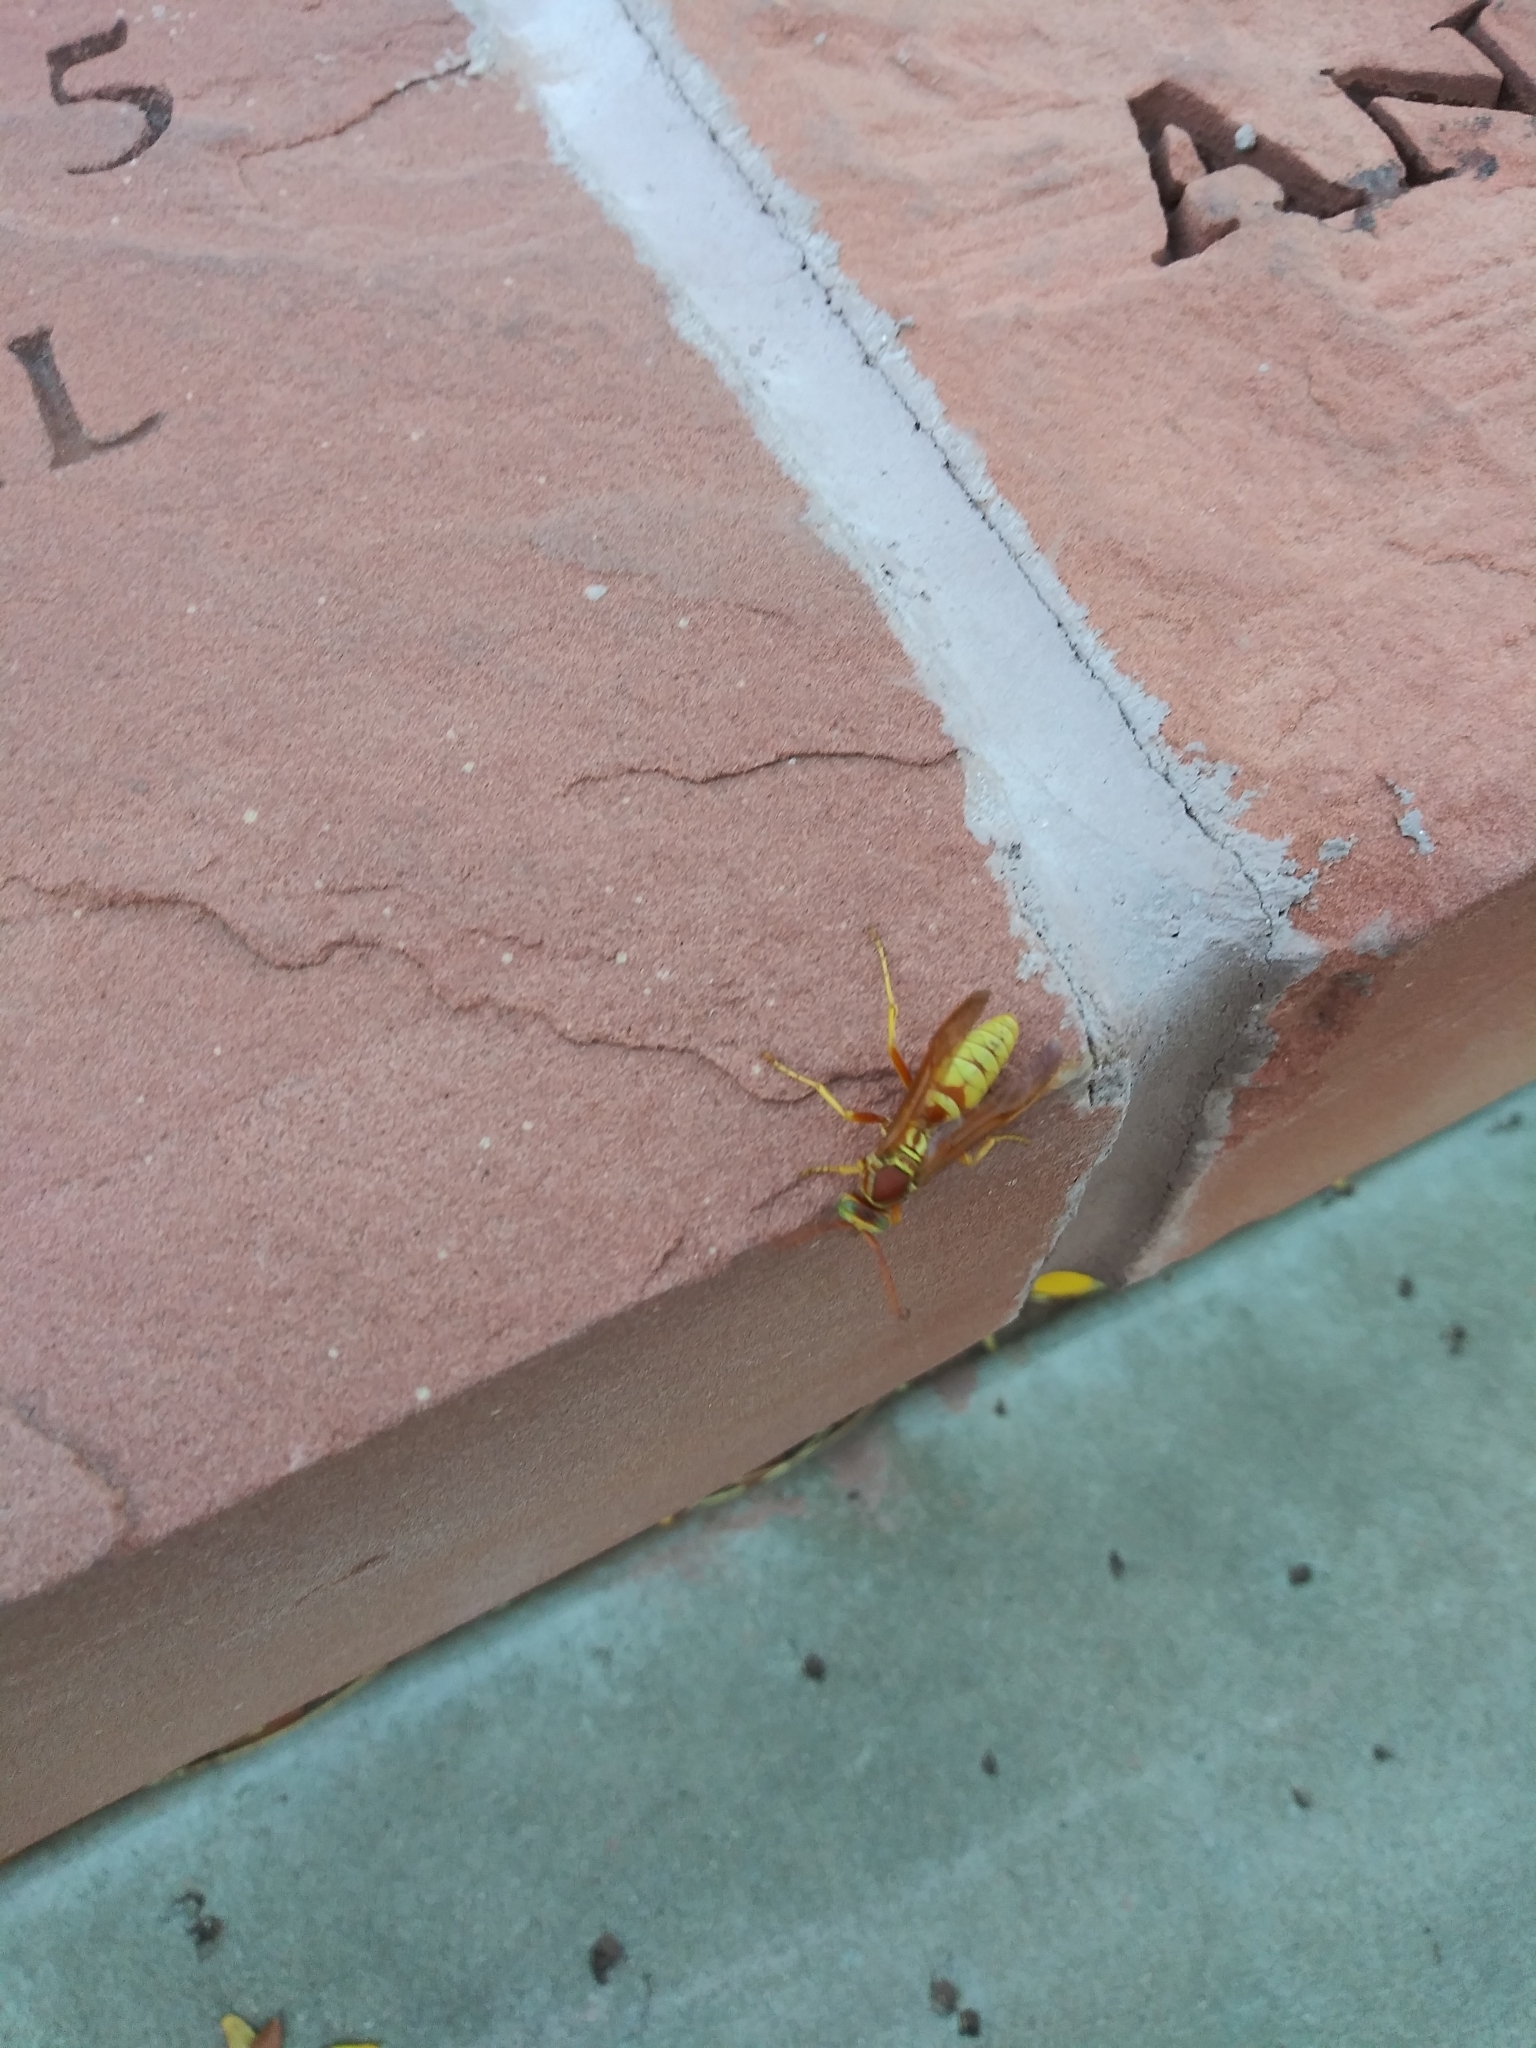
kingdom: Animalia
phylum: Arthropoda
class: Insecta
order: Hymenoptera
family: Eumenidae
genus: Polistes
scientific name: Polistes aurifer
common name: Paper wasp
